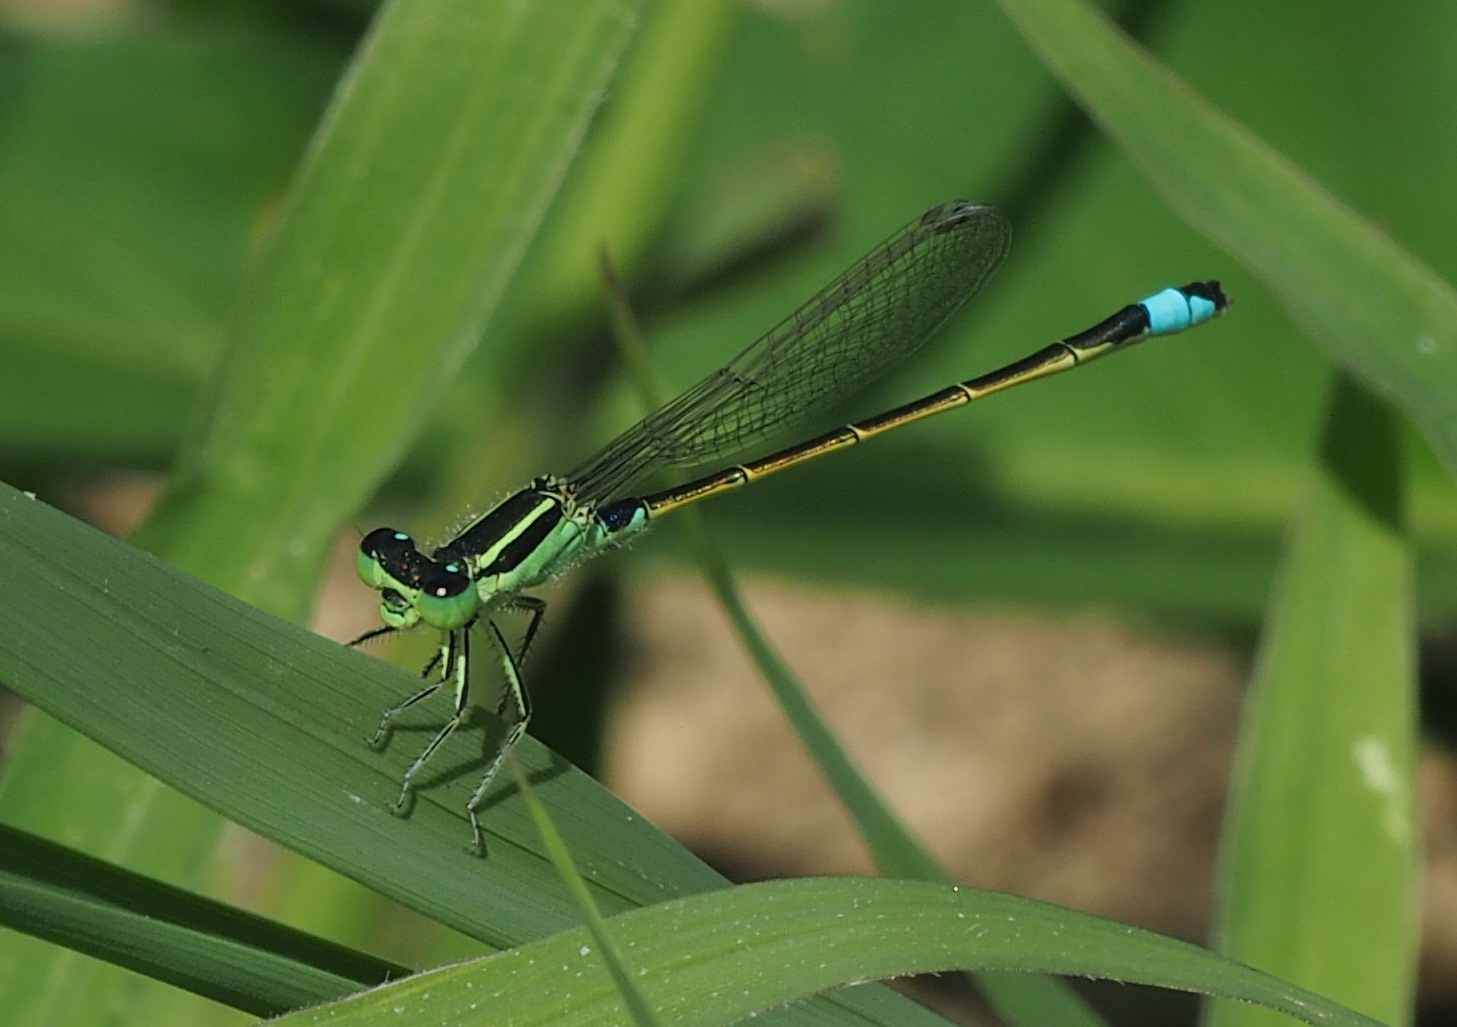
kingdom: Animalia
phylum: Arthropoda
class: Insecta
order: Odonata
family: Coenagrionidae
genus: Ischnura
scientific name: Ischnura senegalensis
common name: Tropical bluetail
